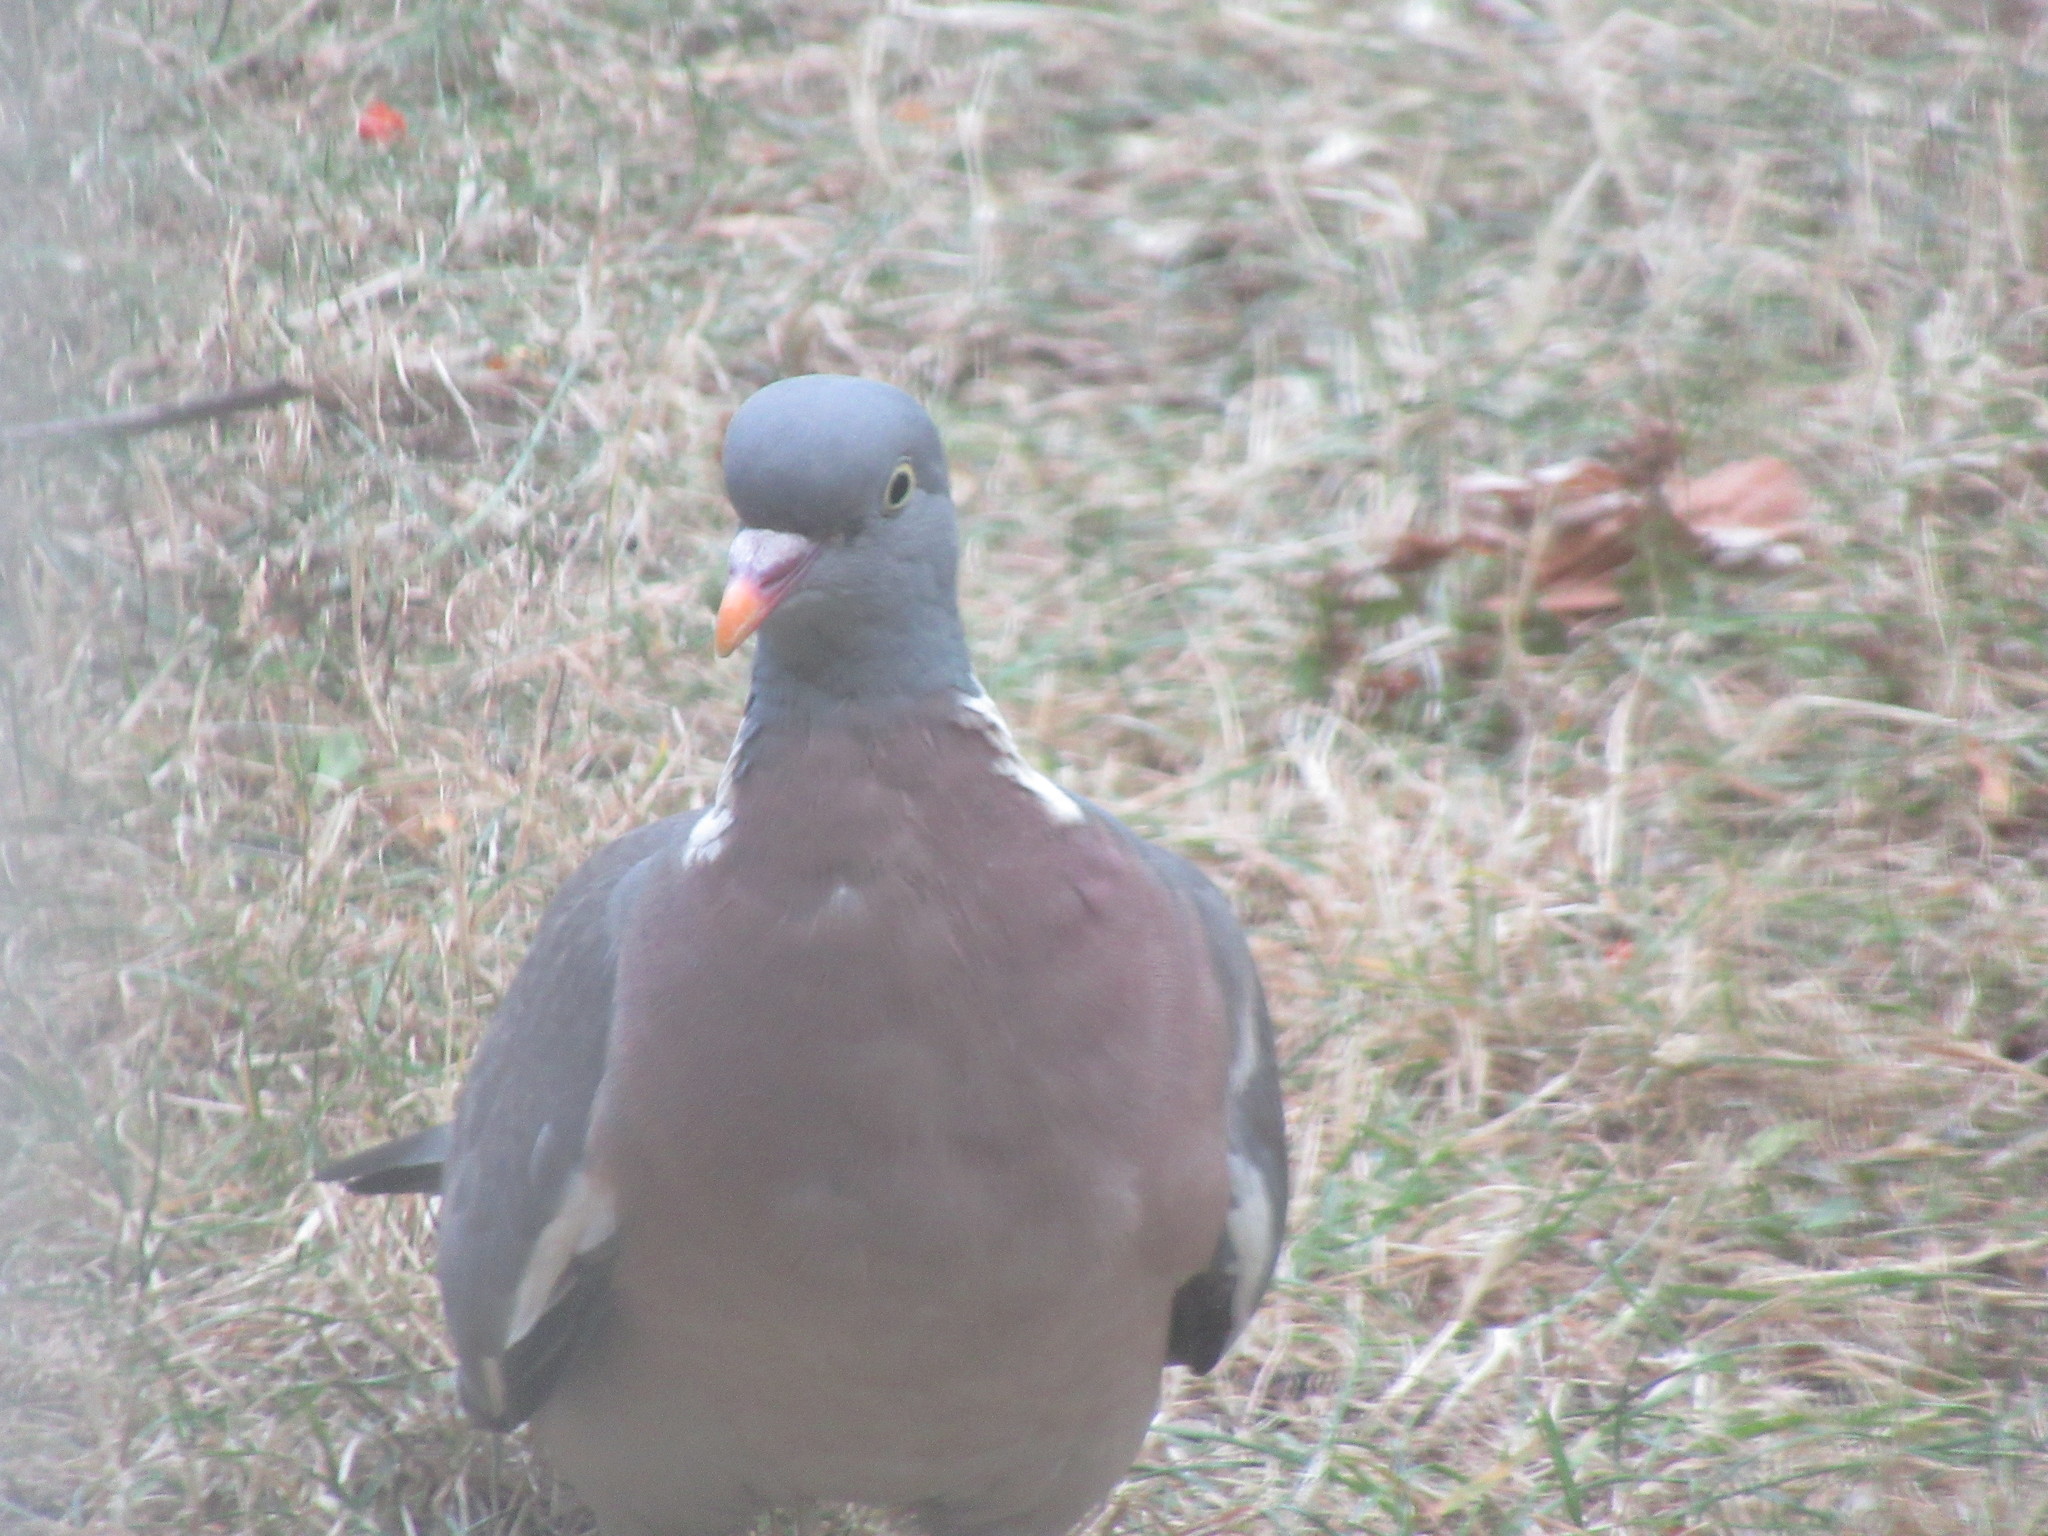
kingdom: Animalia
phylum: Chordata
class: Aves
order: Columbiformes
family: Columbidae
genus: Columba
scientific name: Columba palumbus
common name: Common wood pigeon
